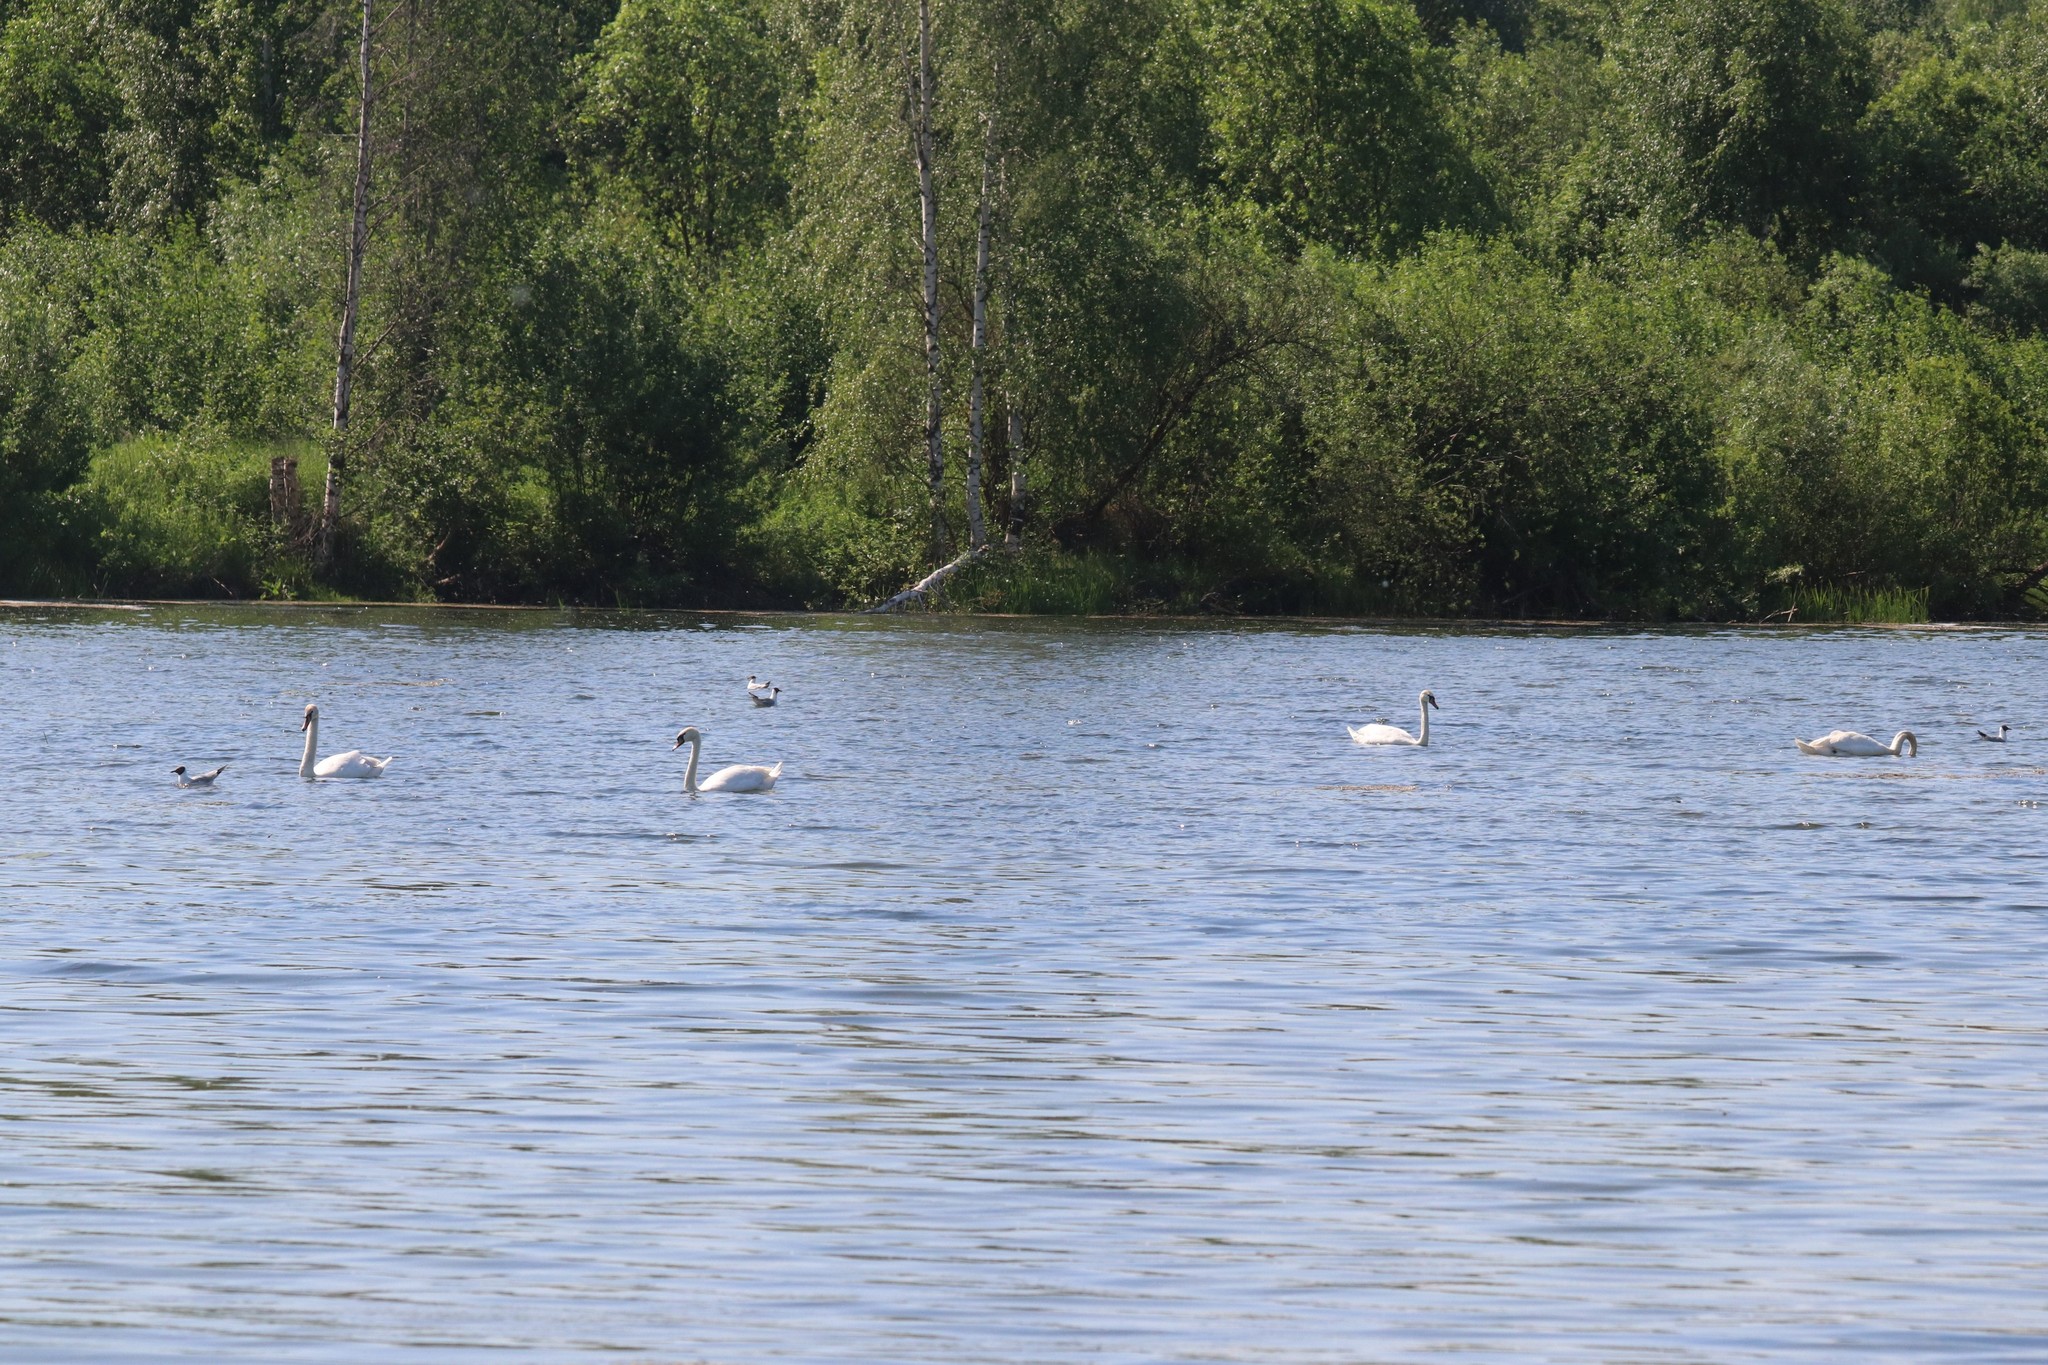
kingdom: Animalia
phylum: Chordata
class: Aves
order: Anseriformes
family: Anatidae
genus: Cygnus
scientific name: Cygnus olor
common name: Mute swan
